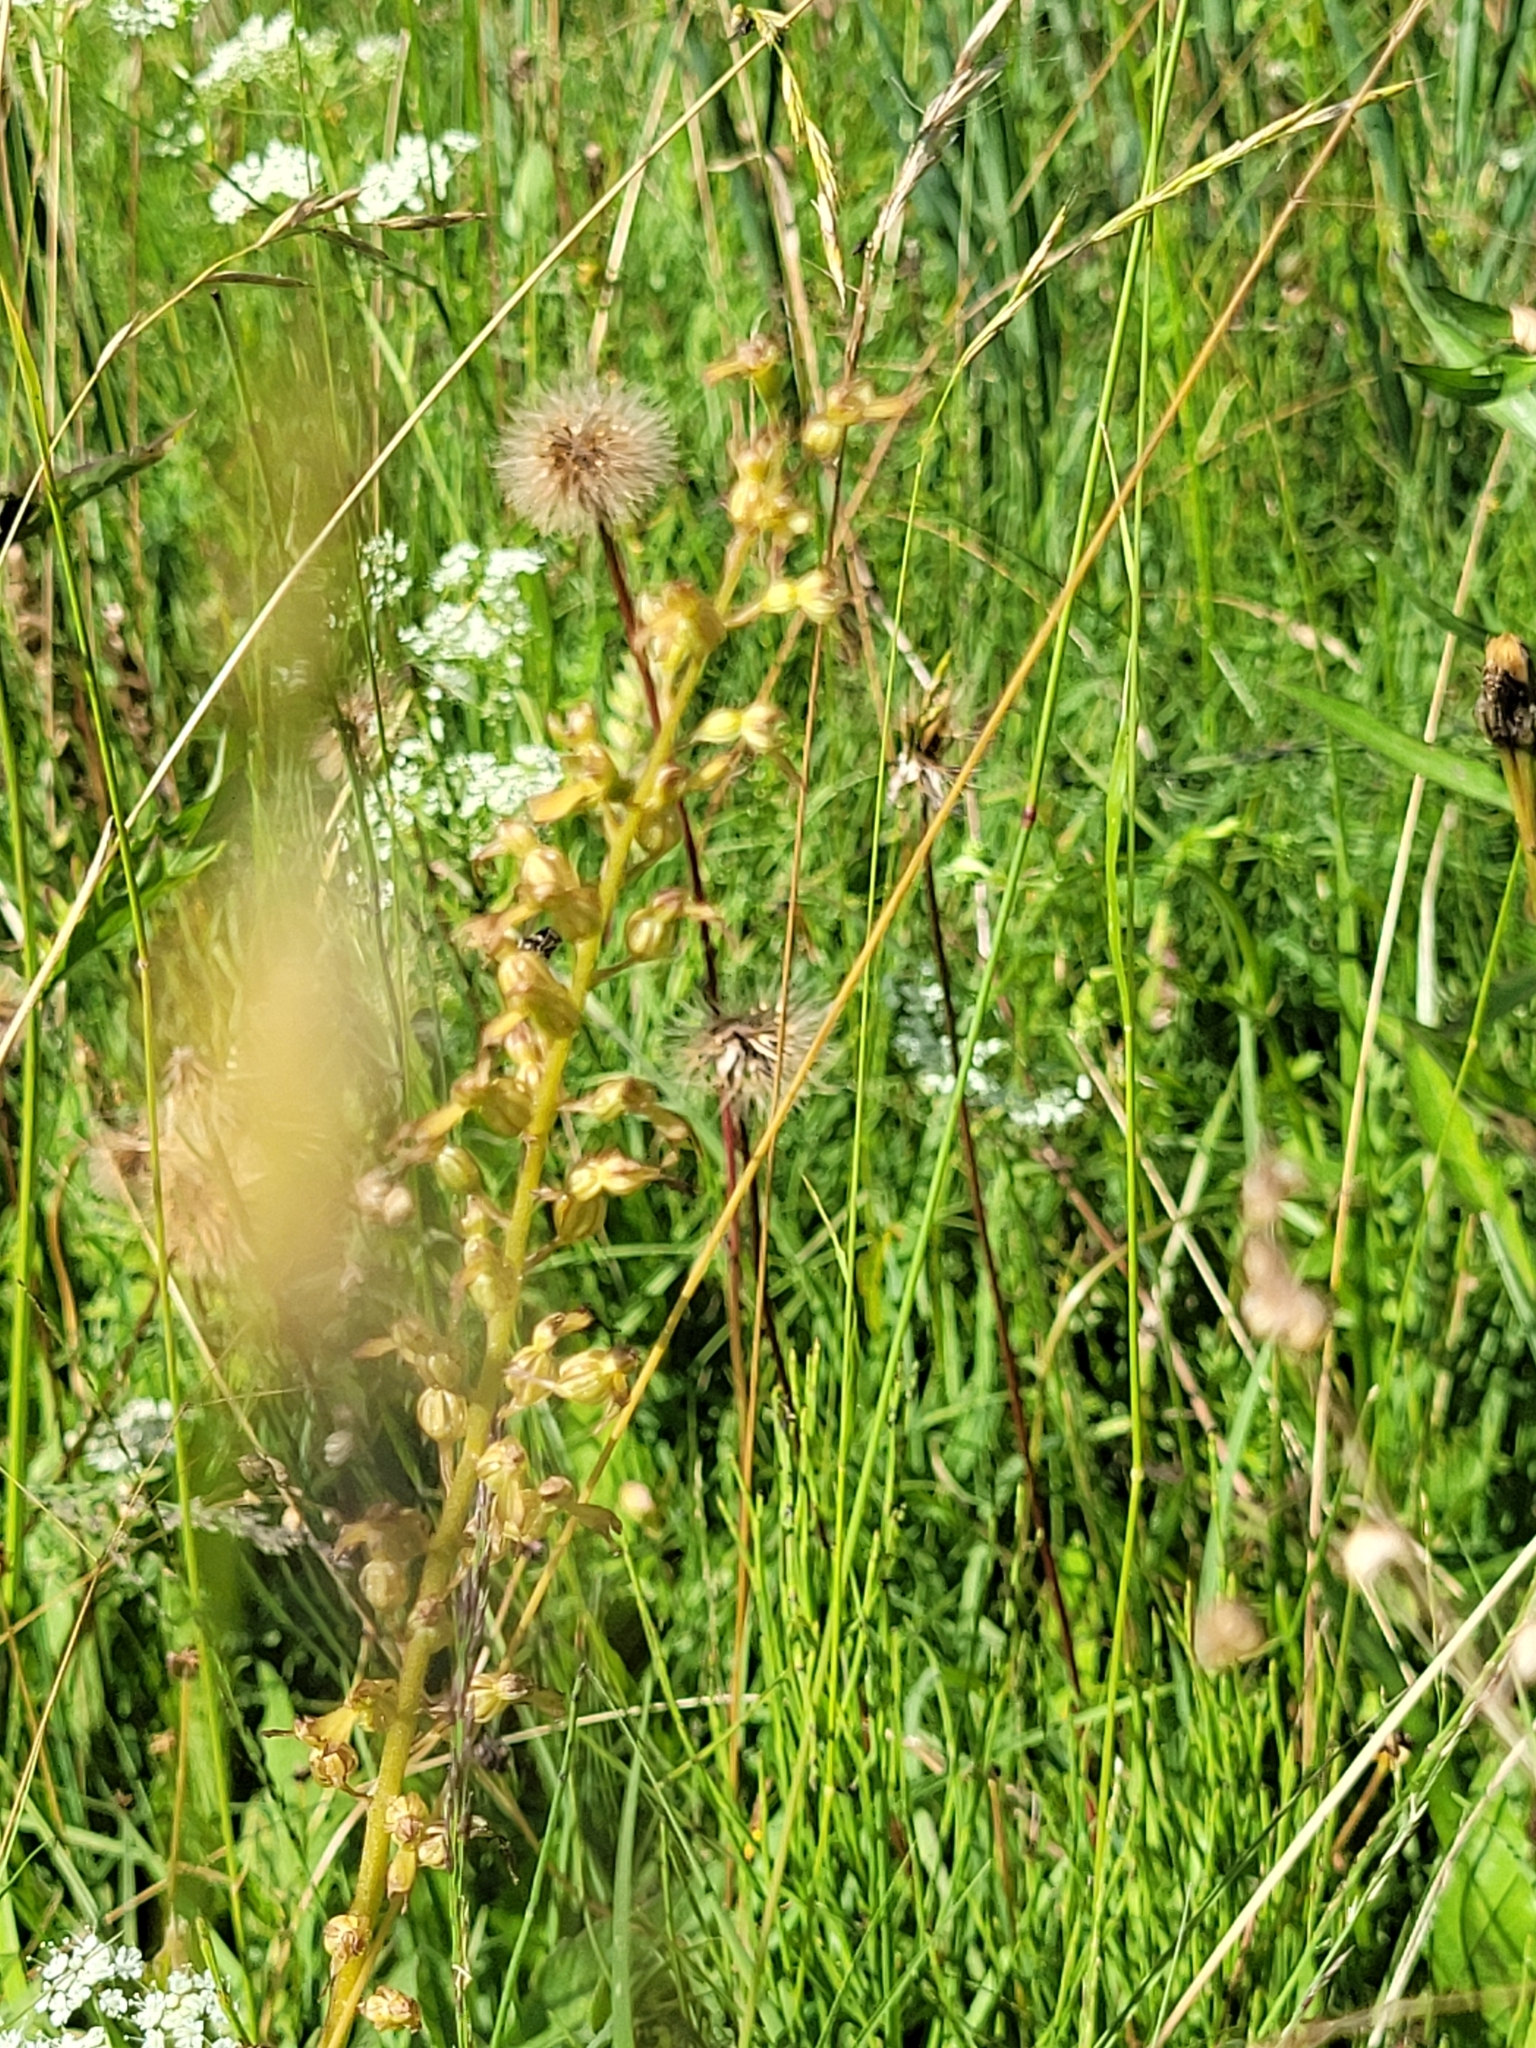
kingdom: Plantae
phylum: Tracheophyta
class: Liliopsida
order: Asparagales
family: Orchidaceae
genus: Neottia
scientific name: Neottia ovata
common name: Common twayblade
